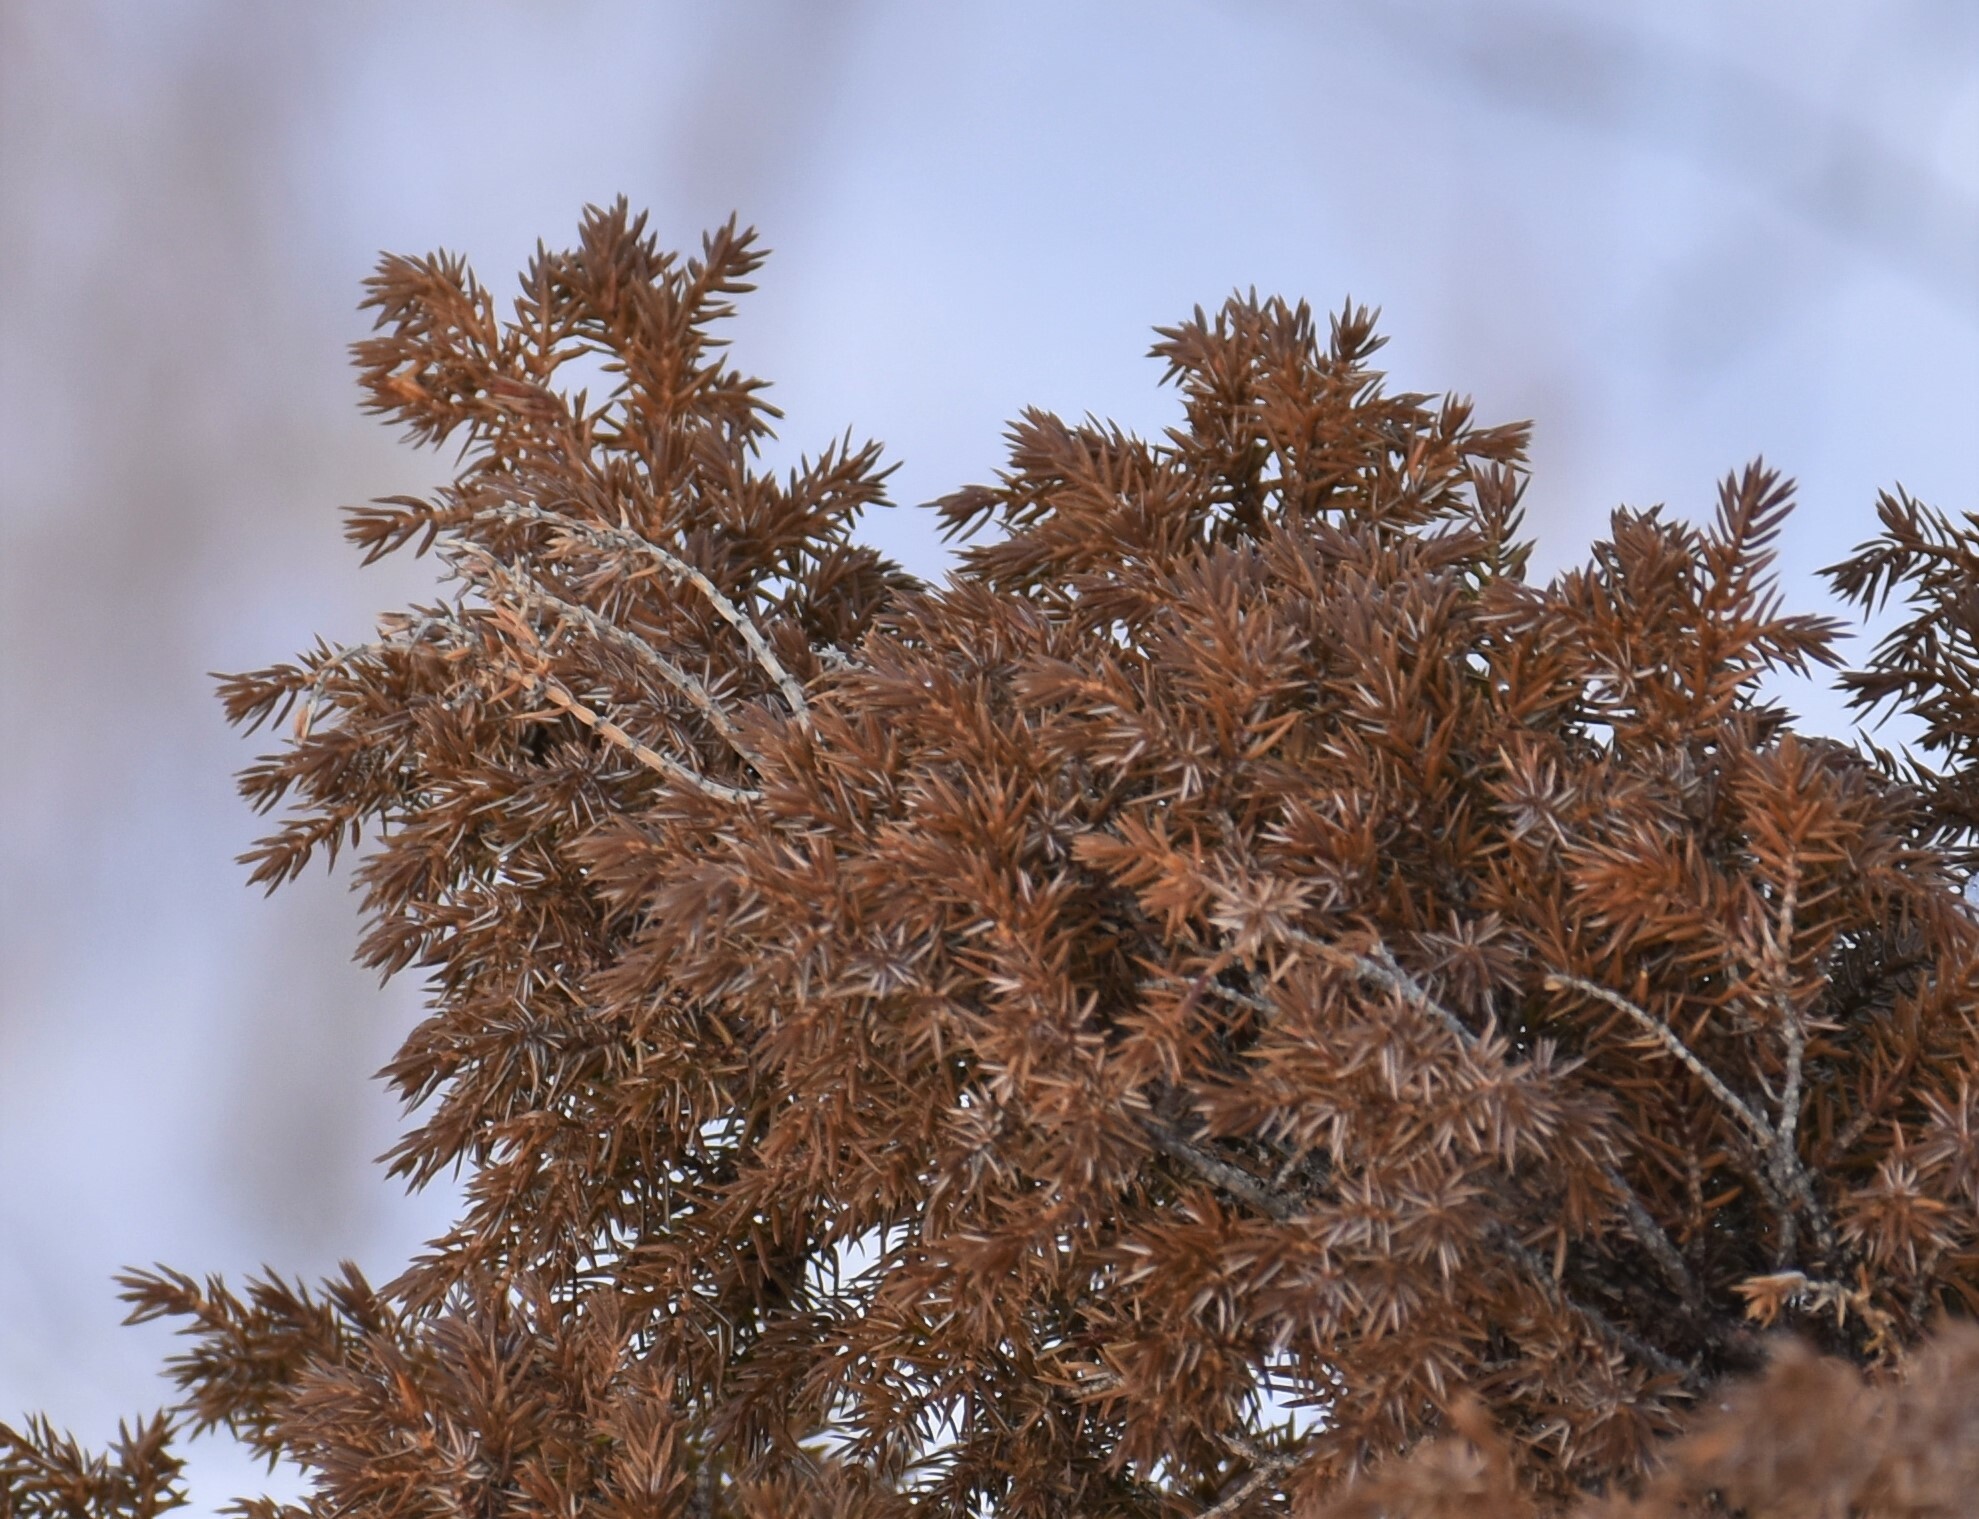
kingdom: Plantae
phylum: Tracheophyta
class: Pinopsida
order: Pinales
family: Cupressaceae
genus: Juniperus
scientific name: Juniperus communis
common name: Common juniper
